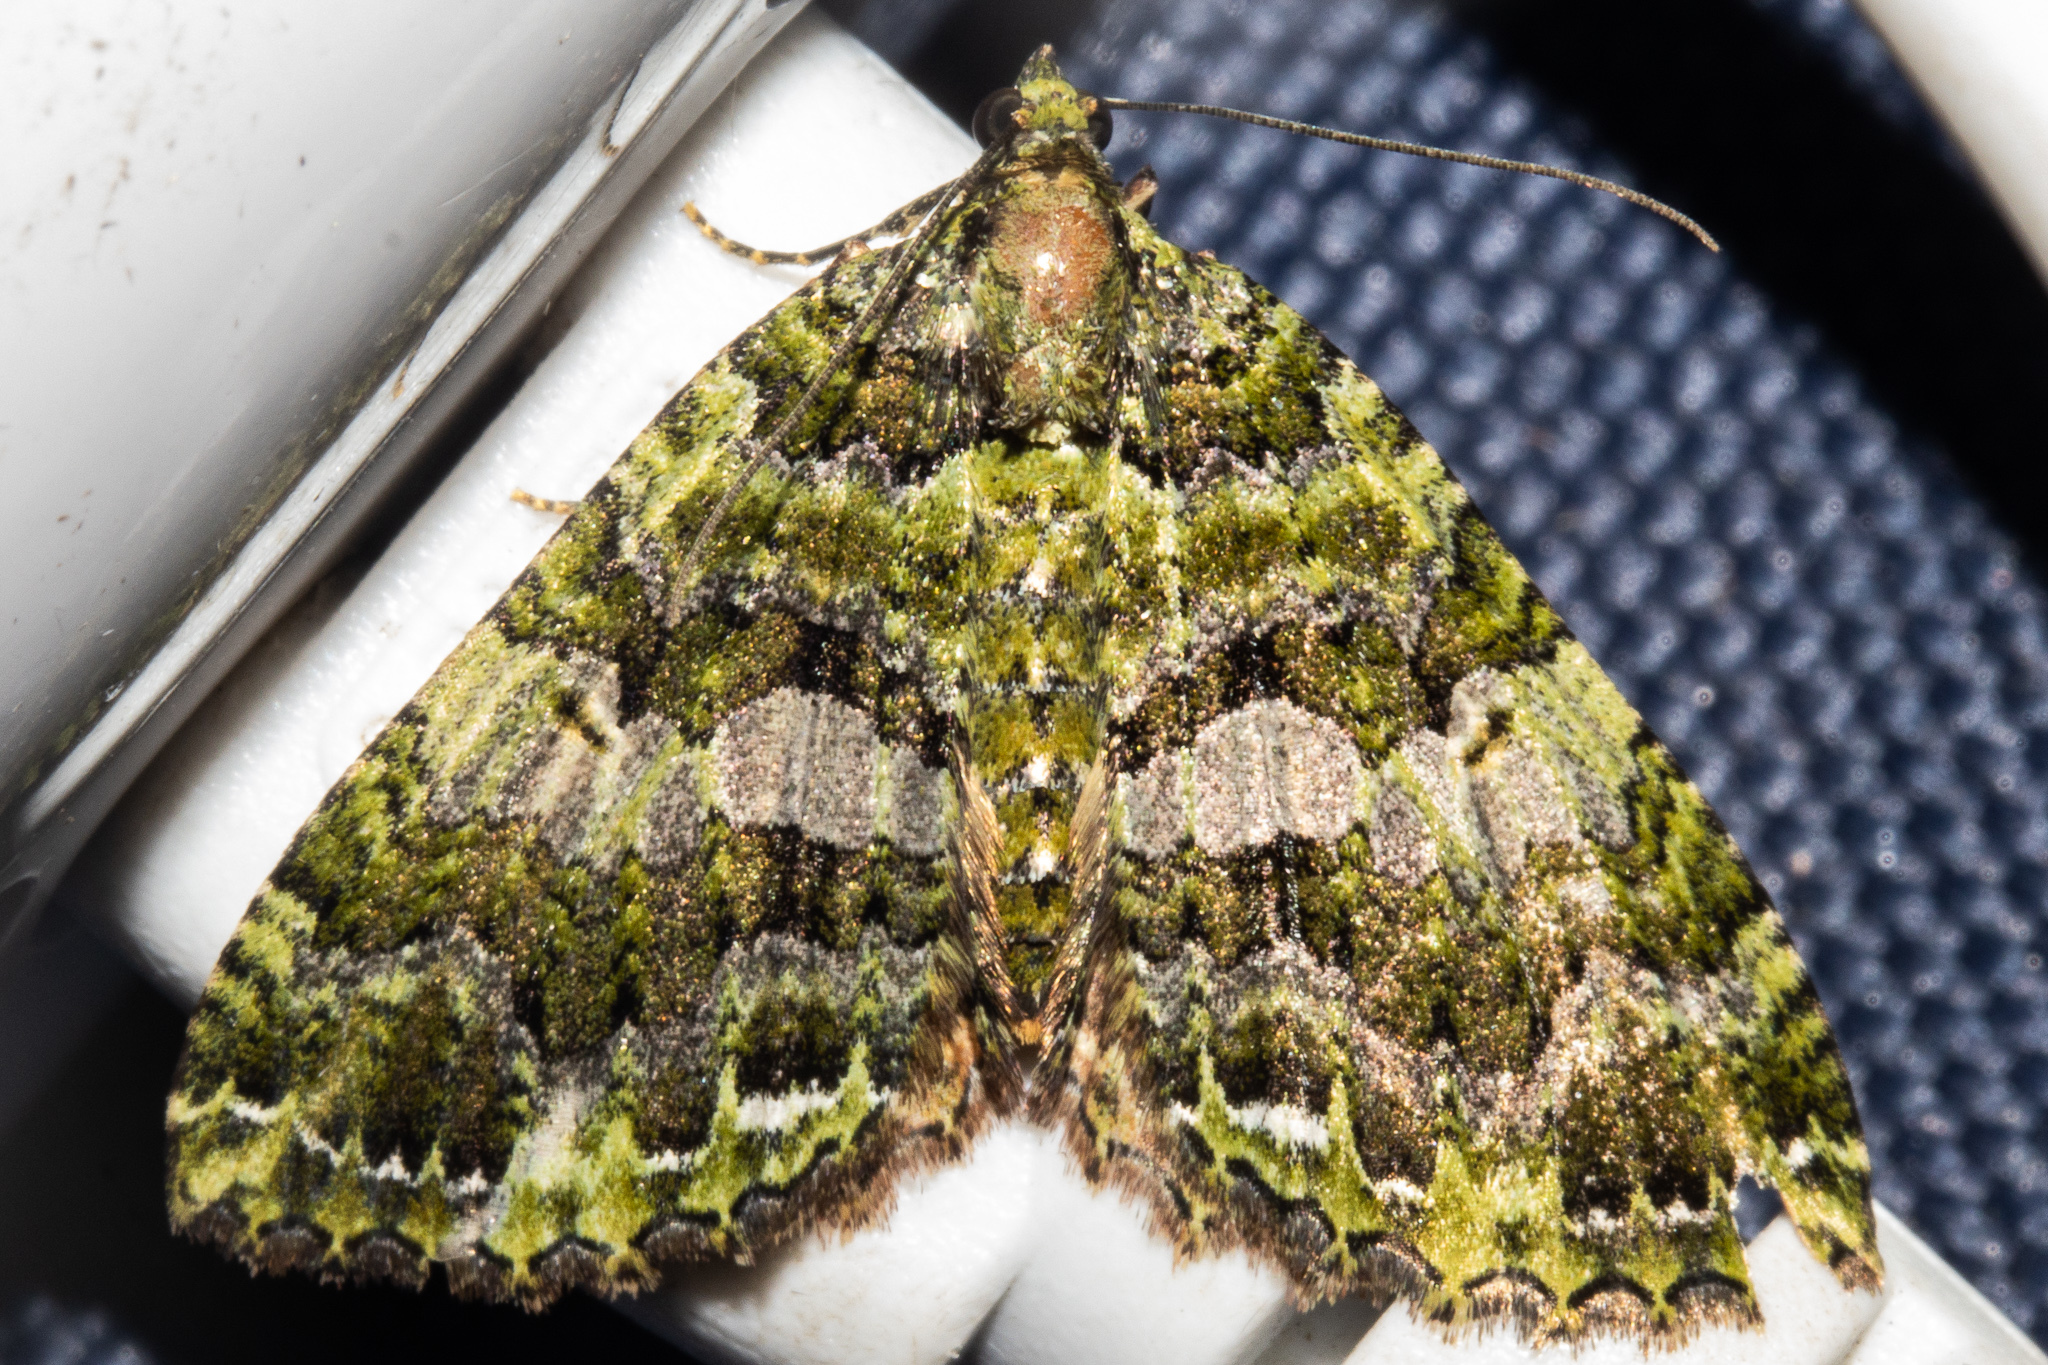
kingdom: Animalia
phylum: Arthropoda
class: Insecta
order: Lepidoptera
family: Geometridae
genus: Austrocidaria
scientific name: Austrocidaria similata
